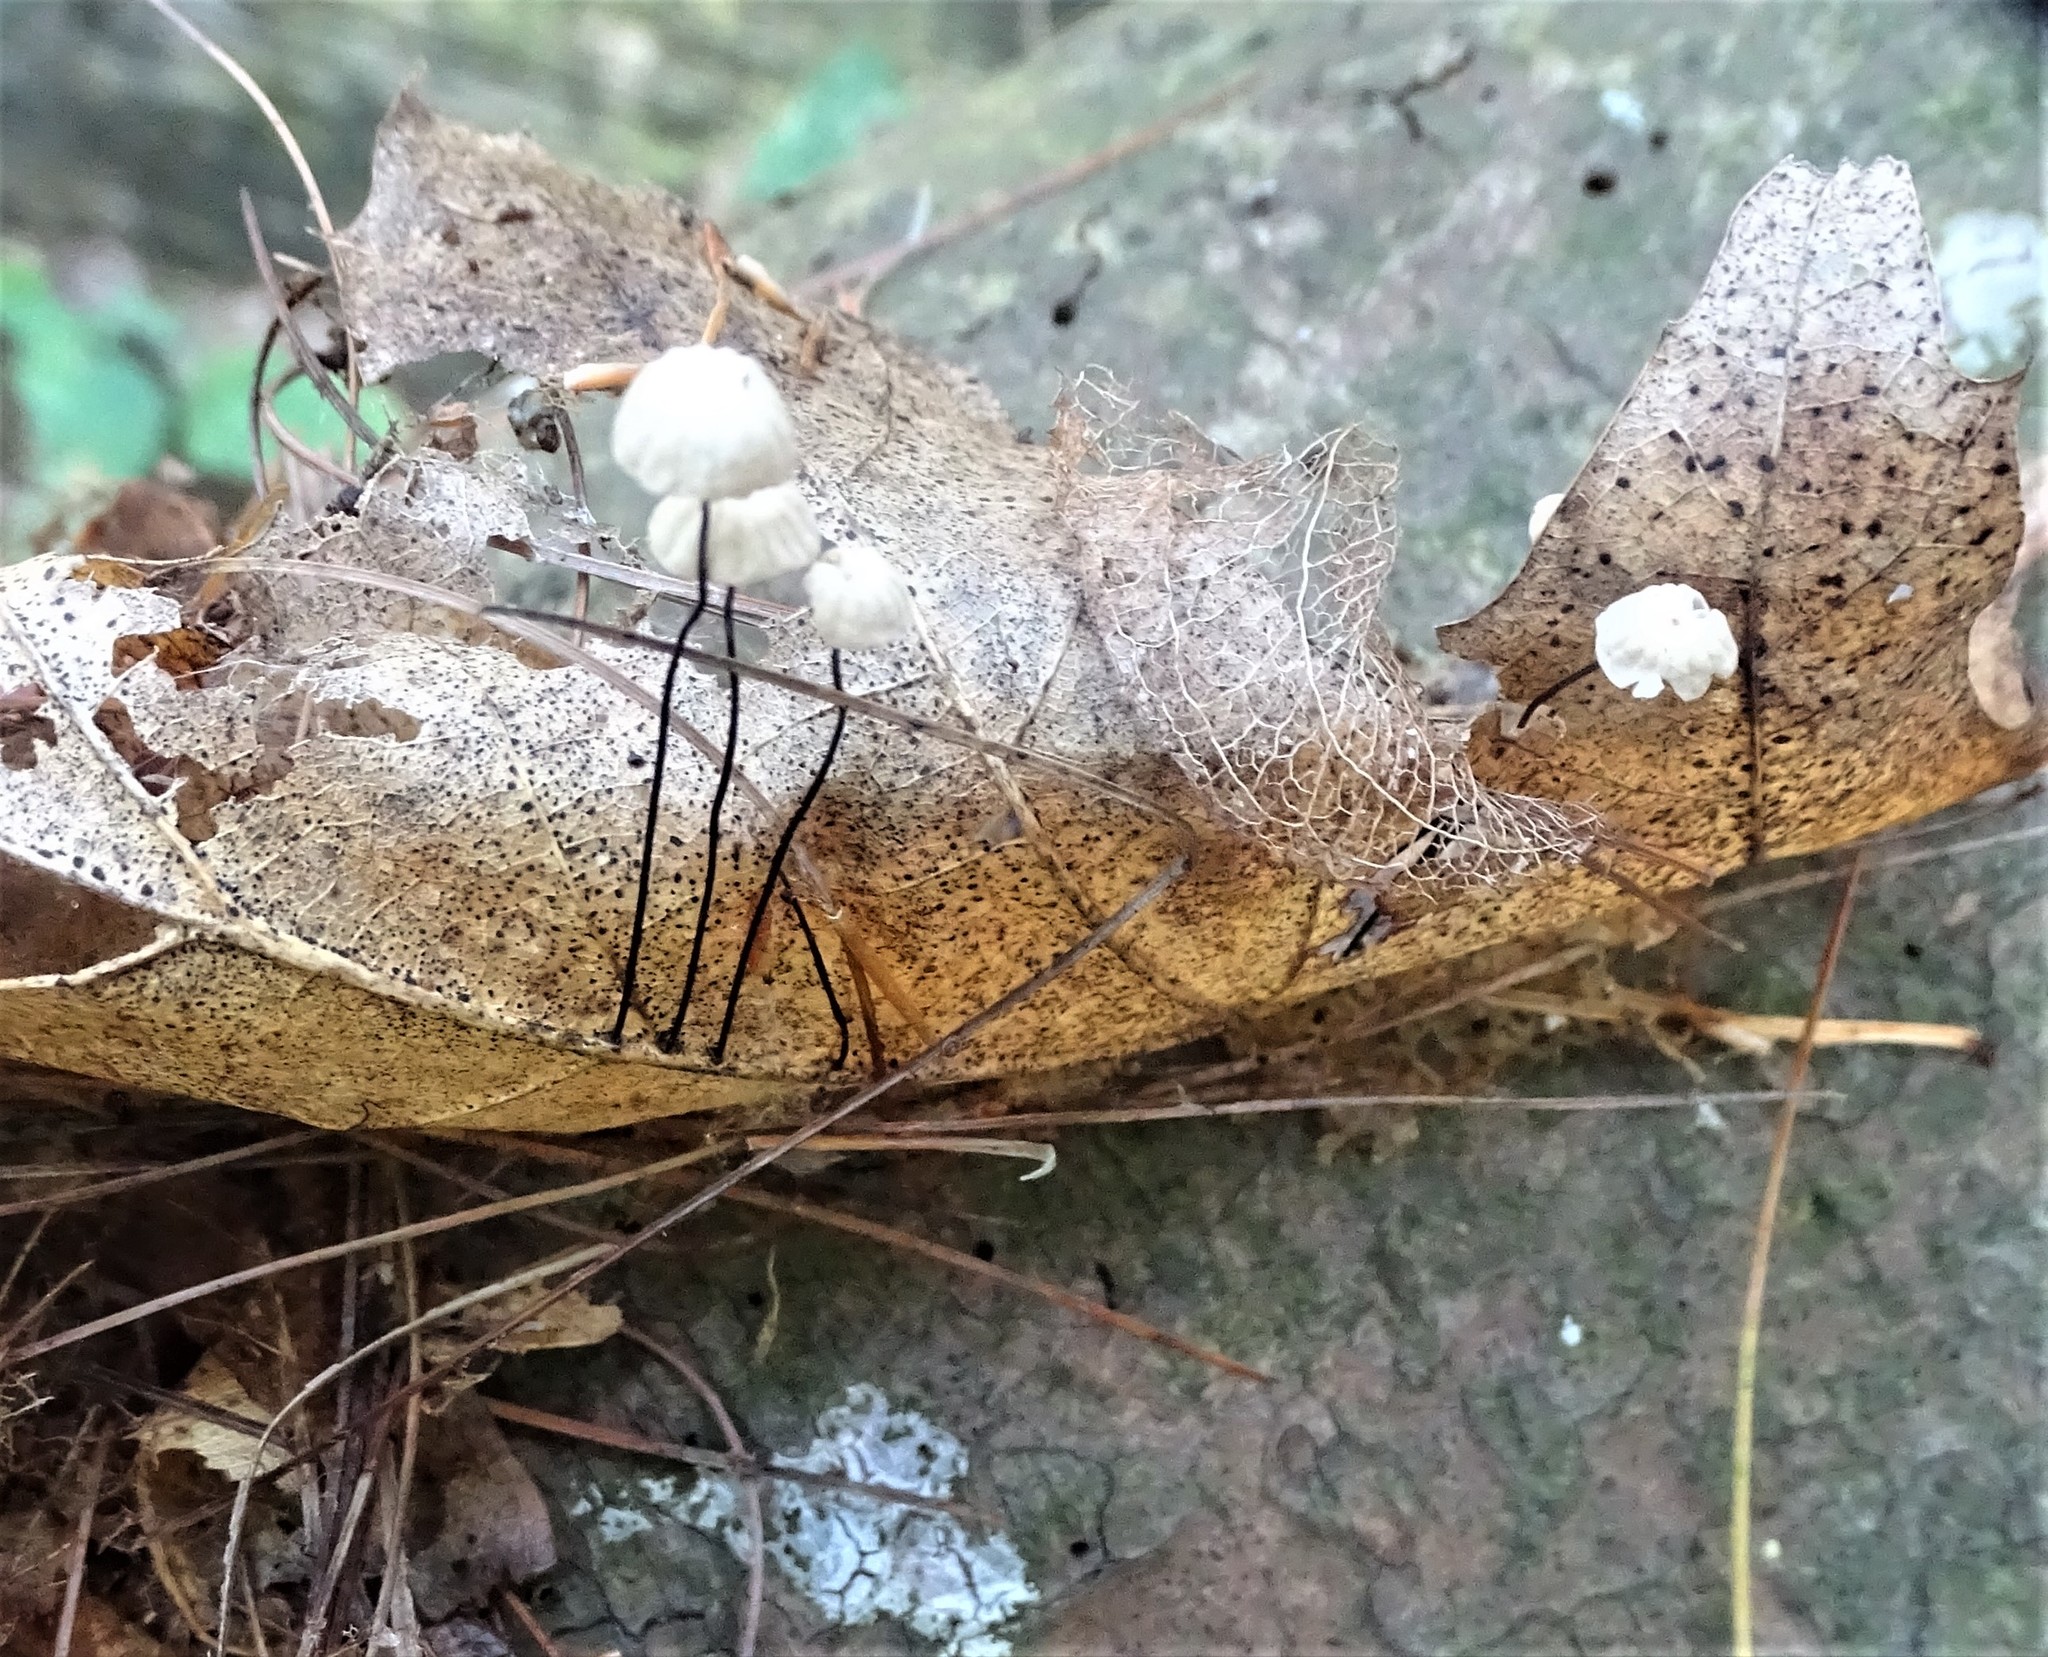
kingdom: Fungi
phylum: Basidiomycota
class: Agaricomycetes
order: Agaricales
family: Marasmiaceae
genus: Marasmius
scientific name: Marasmius capillaris
